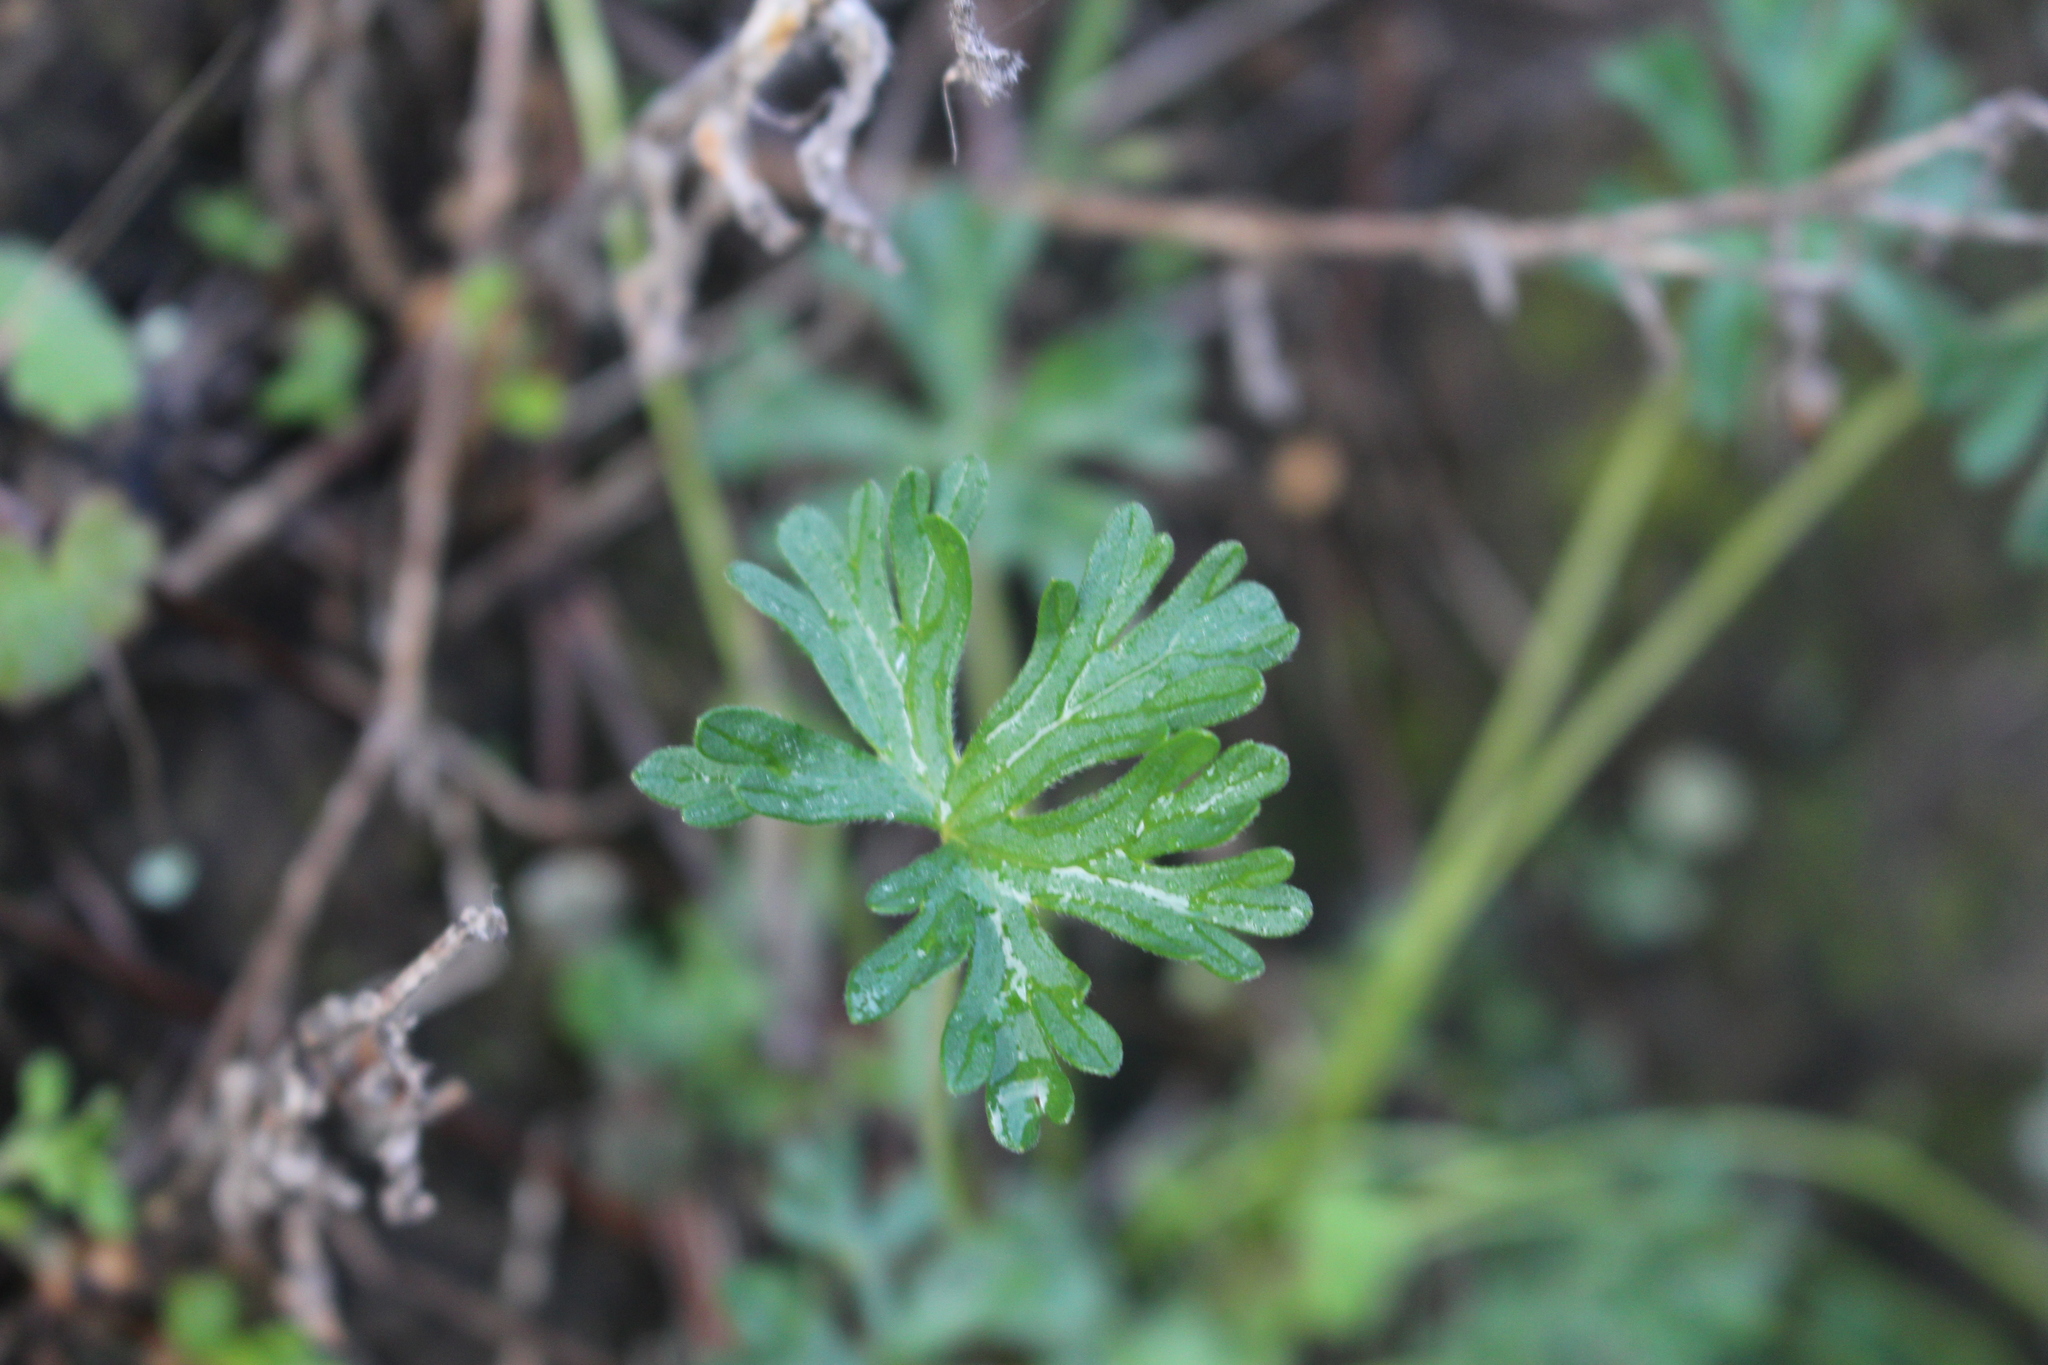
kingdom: Plantae
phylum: Tracheophyta
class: Magnoliopsida
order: Geraniales
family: Geraniaceae
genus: Geranium
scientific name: Geranium retrorsum
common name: New zealand geranium
